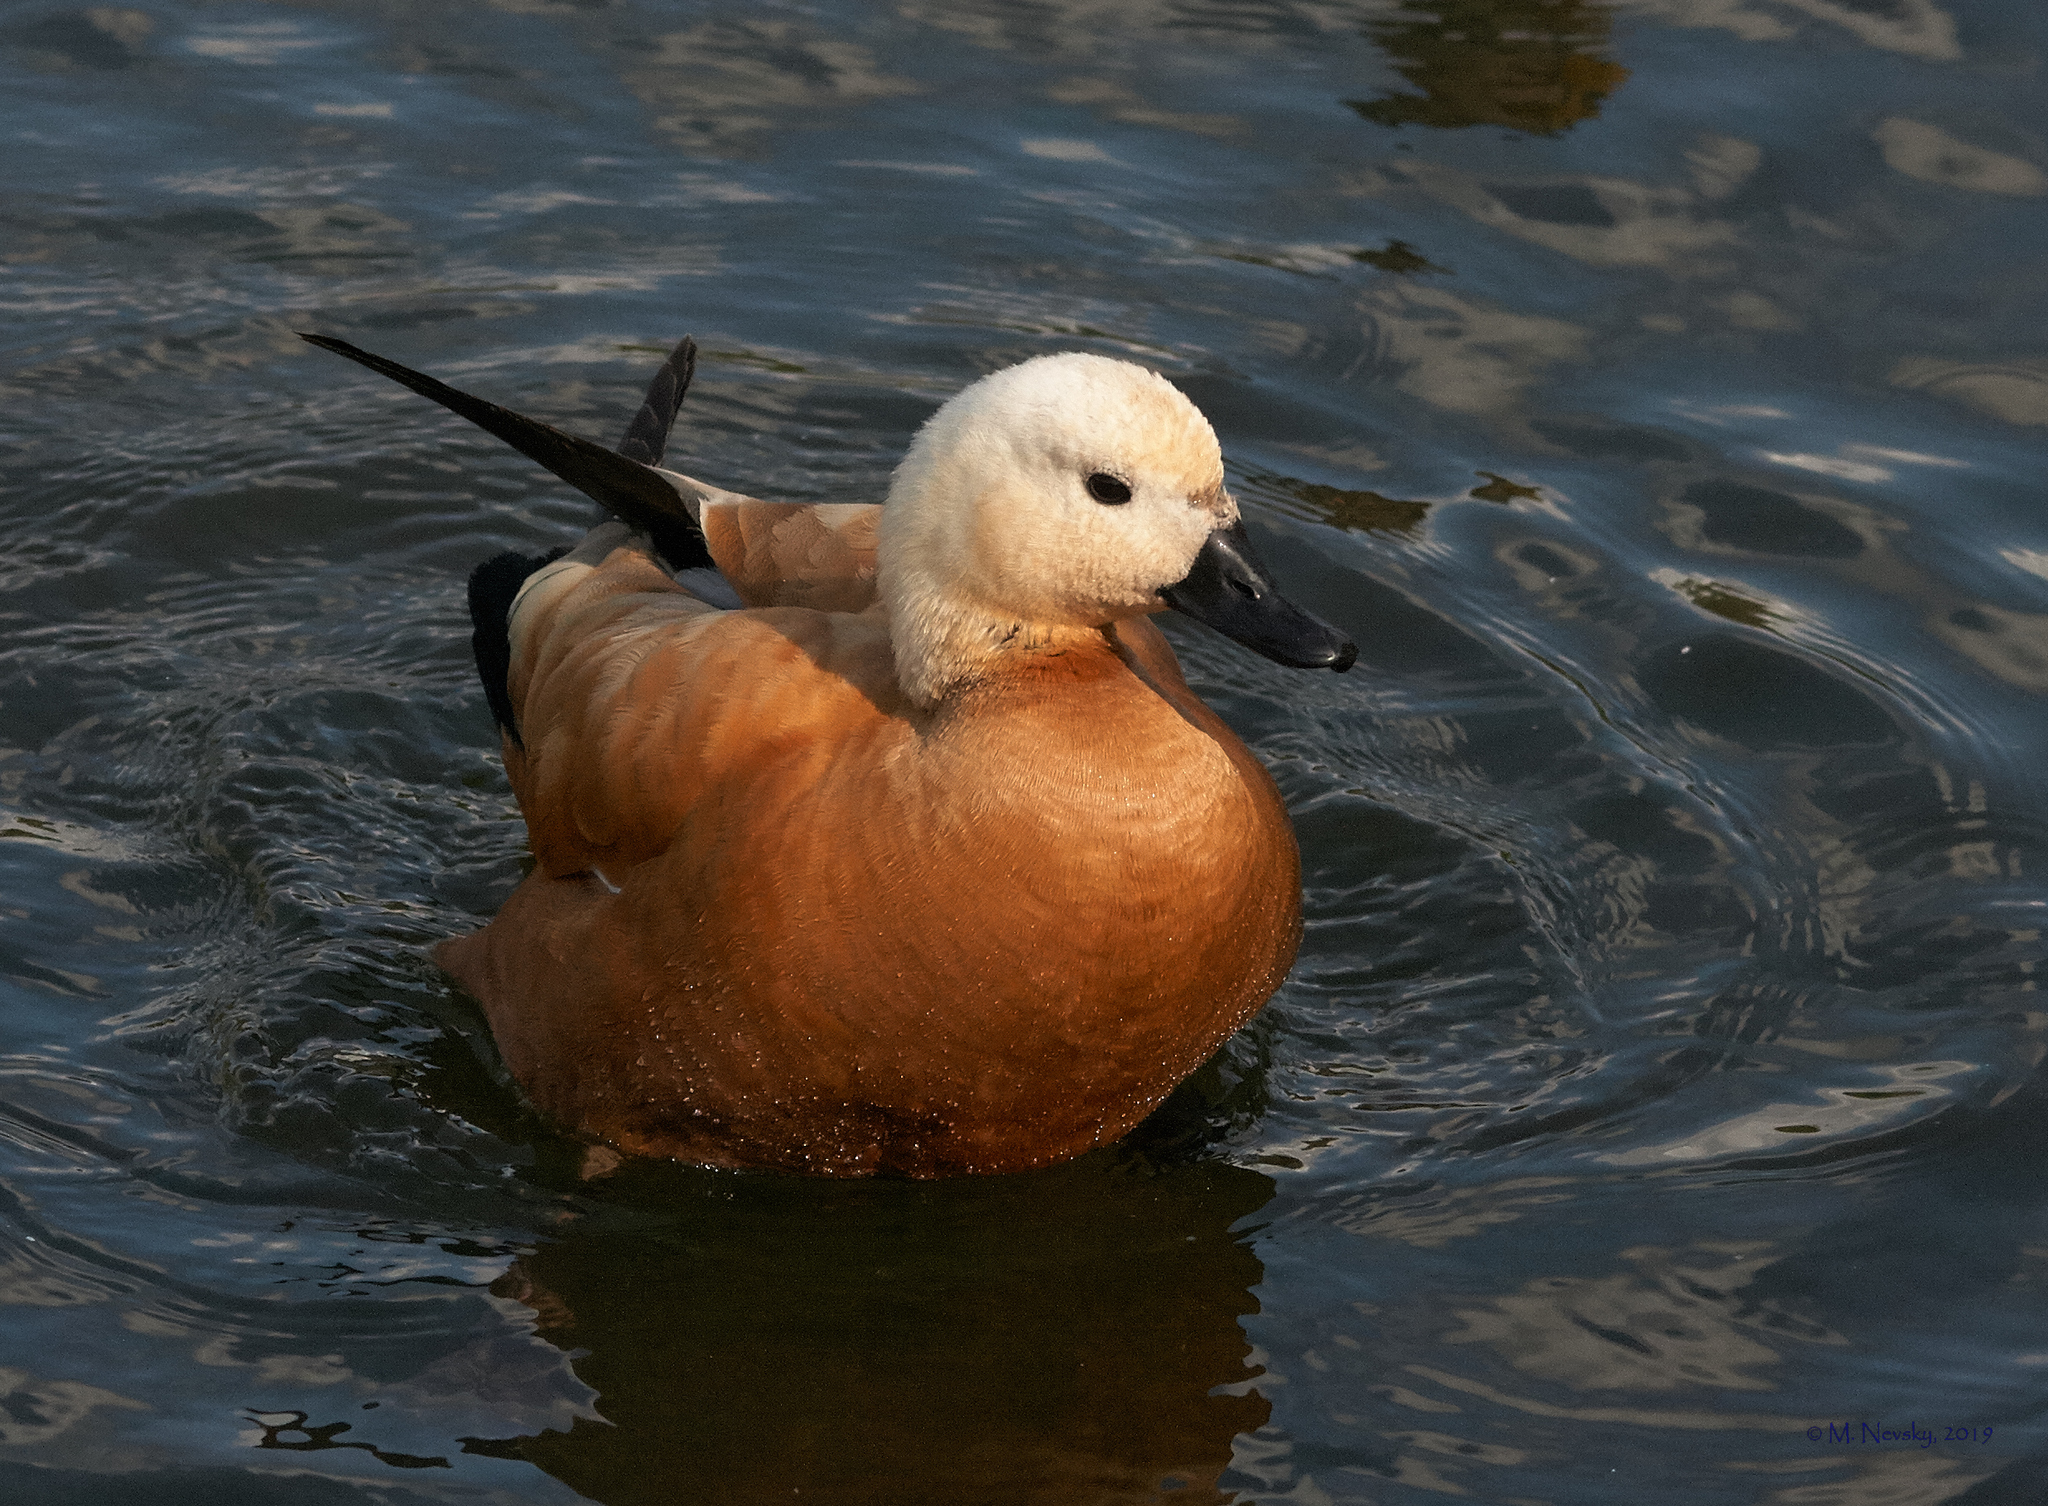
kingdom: Animalia
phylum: Chordata
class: Aves
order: Anseriformes
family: Anatidae
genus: Tadorna
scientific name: Tadorna ferruginea
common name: Ruddy shelduck
